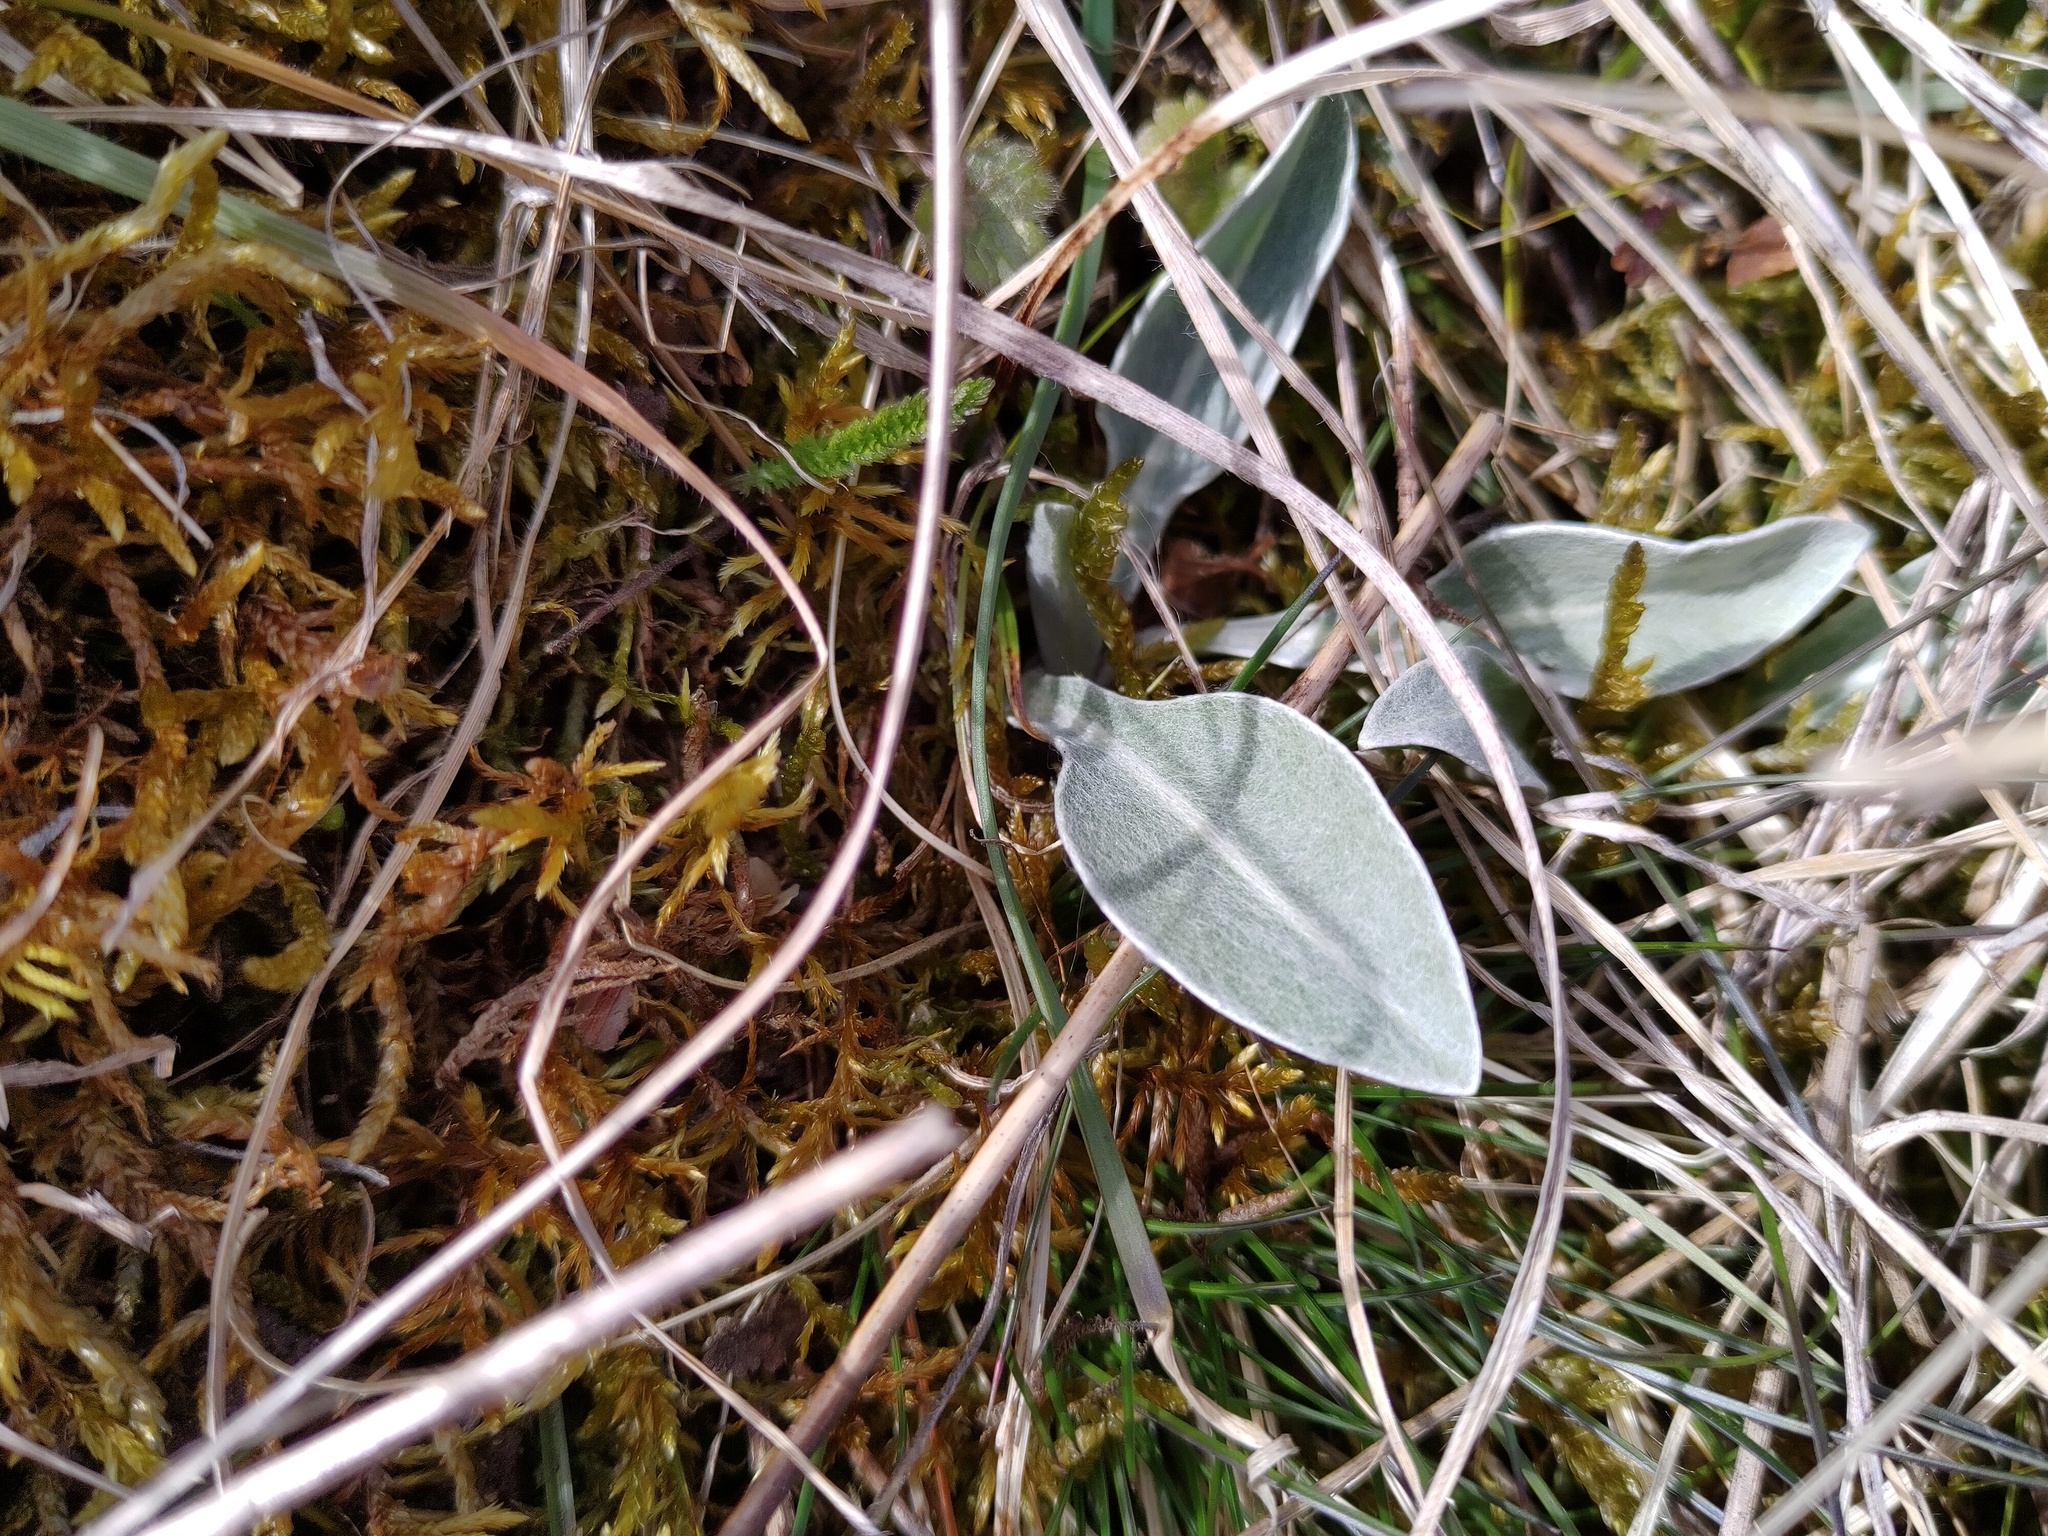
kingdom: Plantae
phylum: Tracheophyta
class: Magnoliopsida
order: Asterales
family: Asteraceae
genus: Centaurea
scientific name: Centaurea triumfettii
